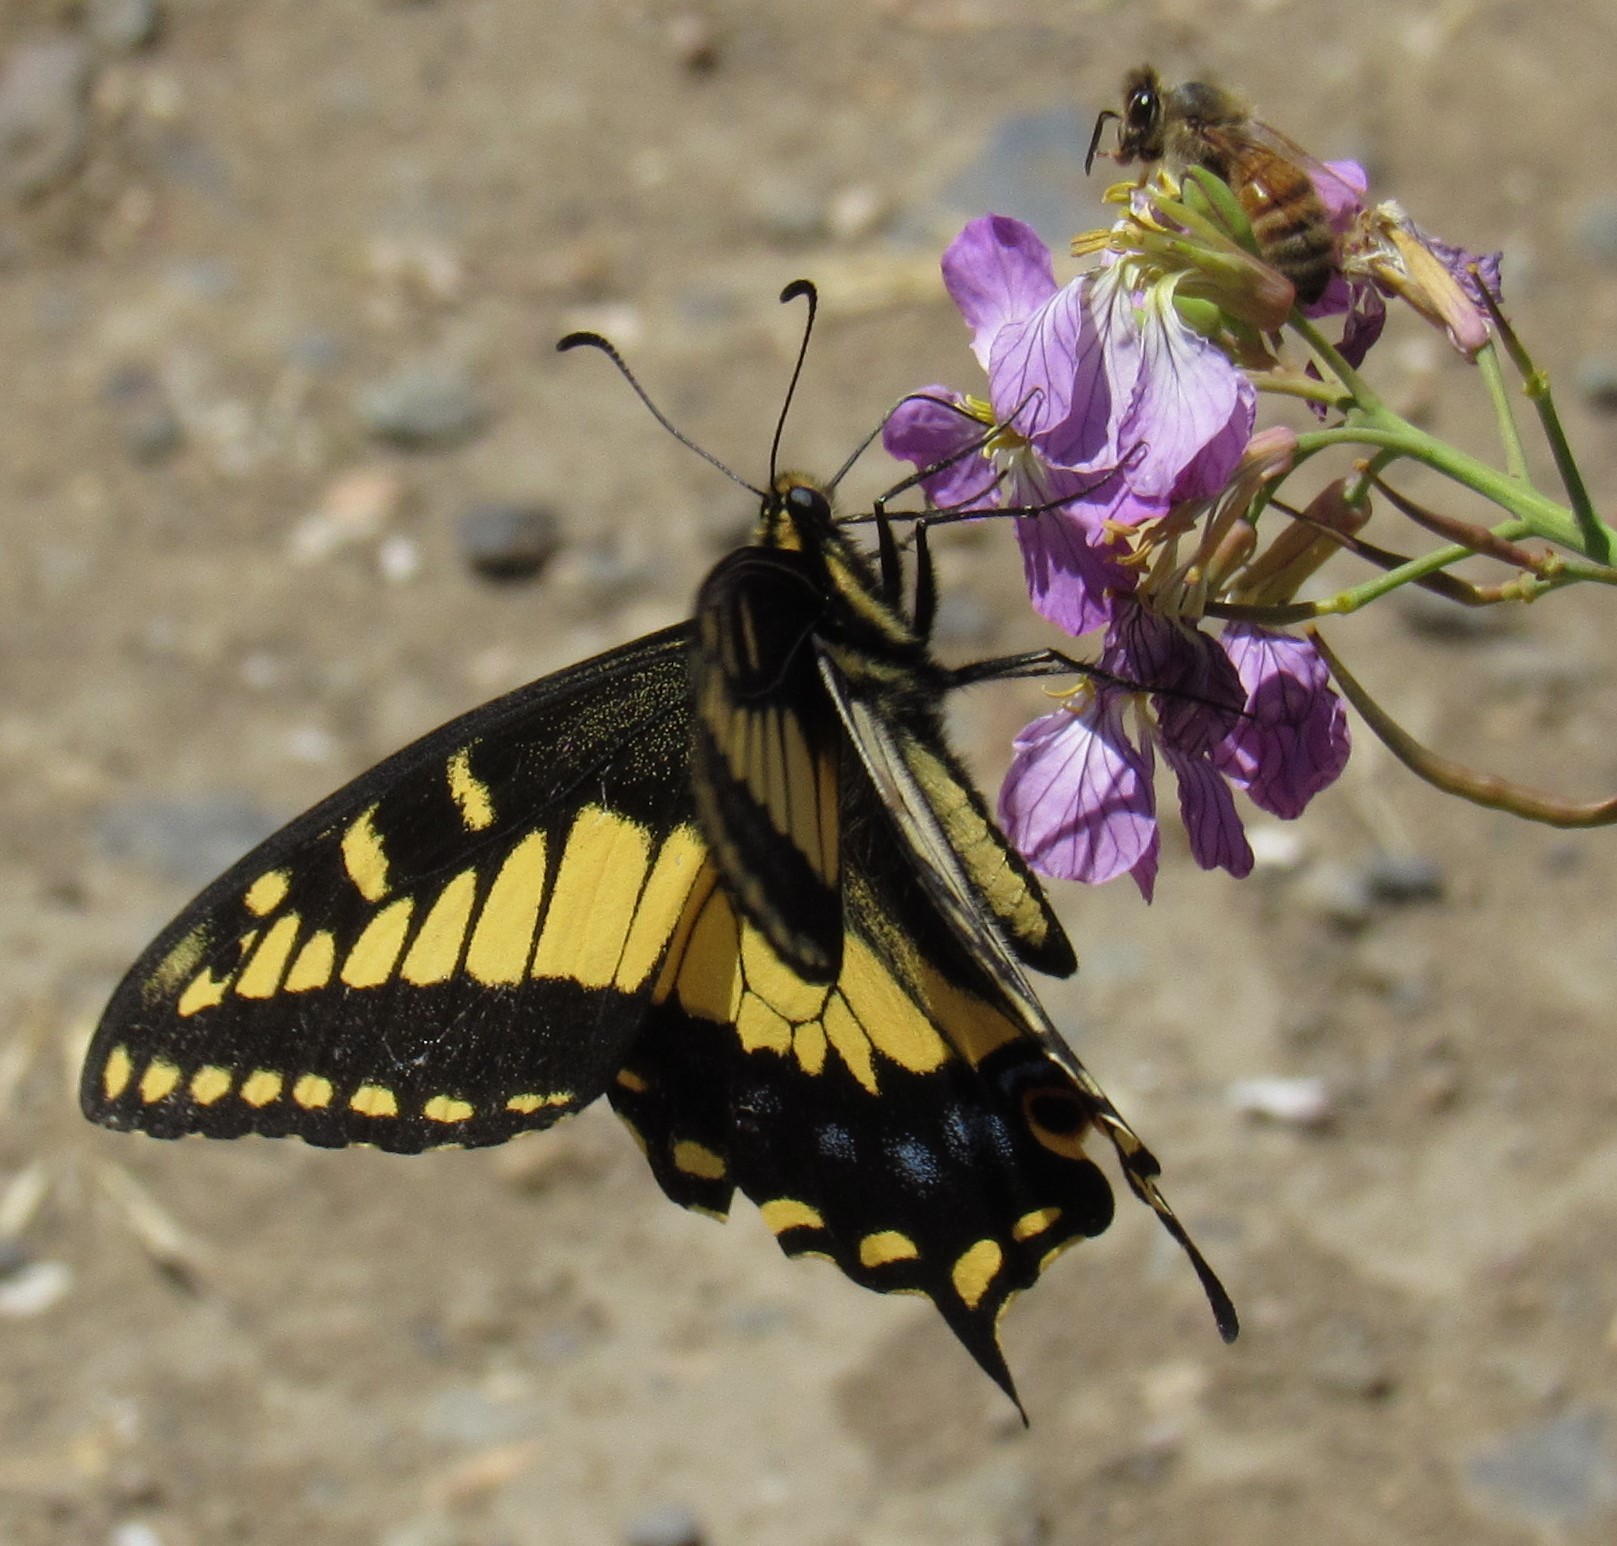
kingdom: Animalia
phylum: Arthropoda
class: Insecta
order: Lepidoptera
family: Papilionidae
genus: Papilio
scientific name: Papilio zelicaon
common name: Anise swallowtail
